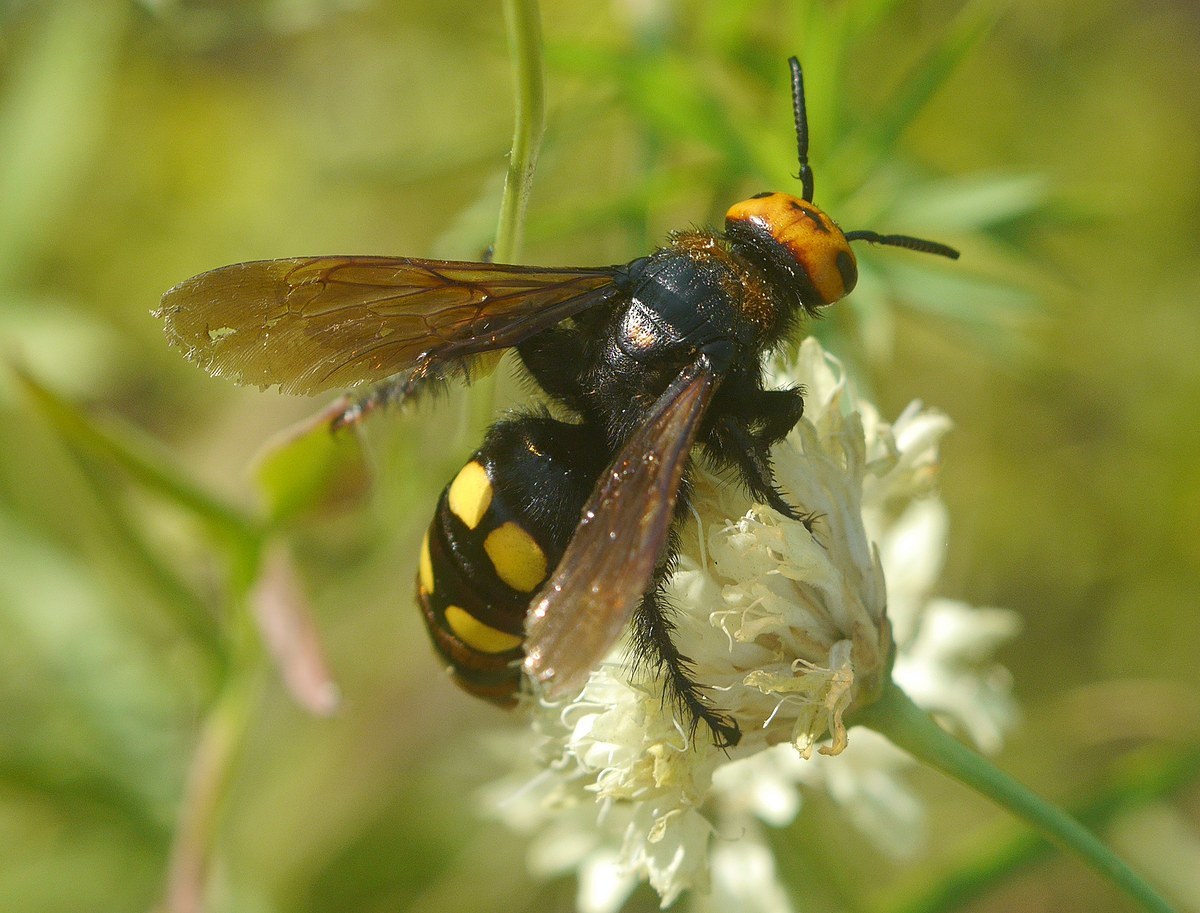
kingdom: Animalia
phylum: Arthropoda
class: Insecta
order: Hymenoptera
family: Scoliidae
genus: Megascolia
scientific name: Megascolia maculata
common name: Mammoth wasp
